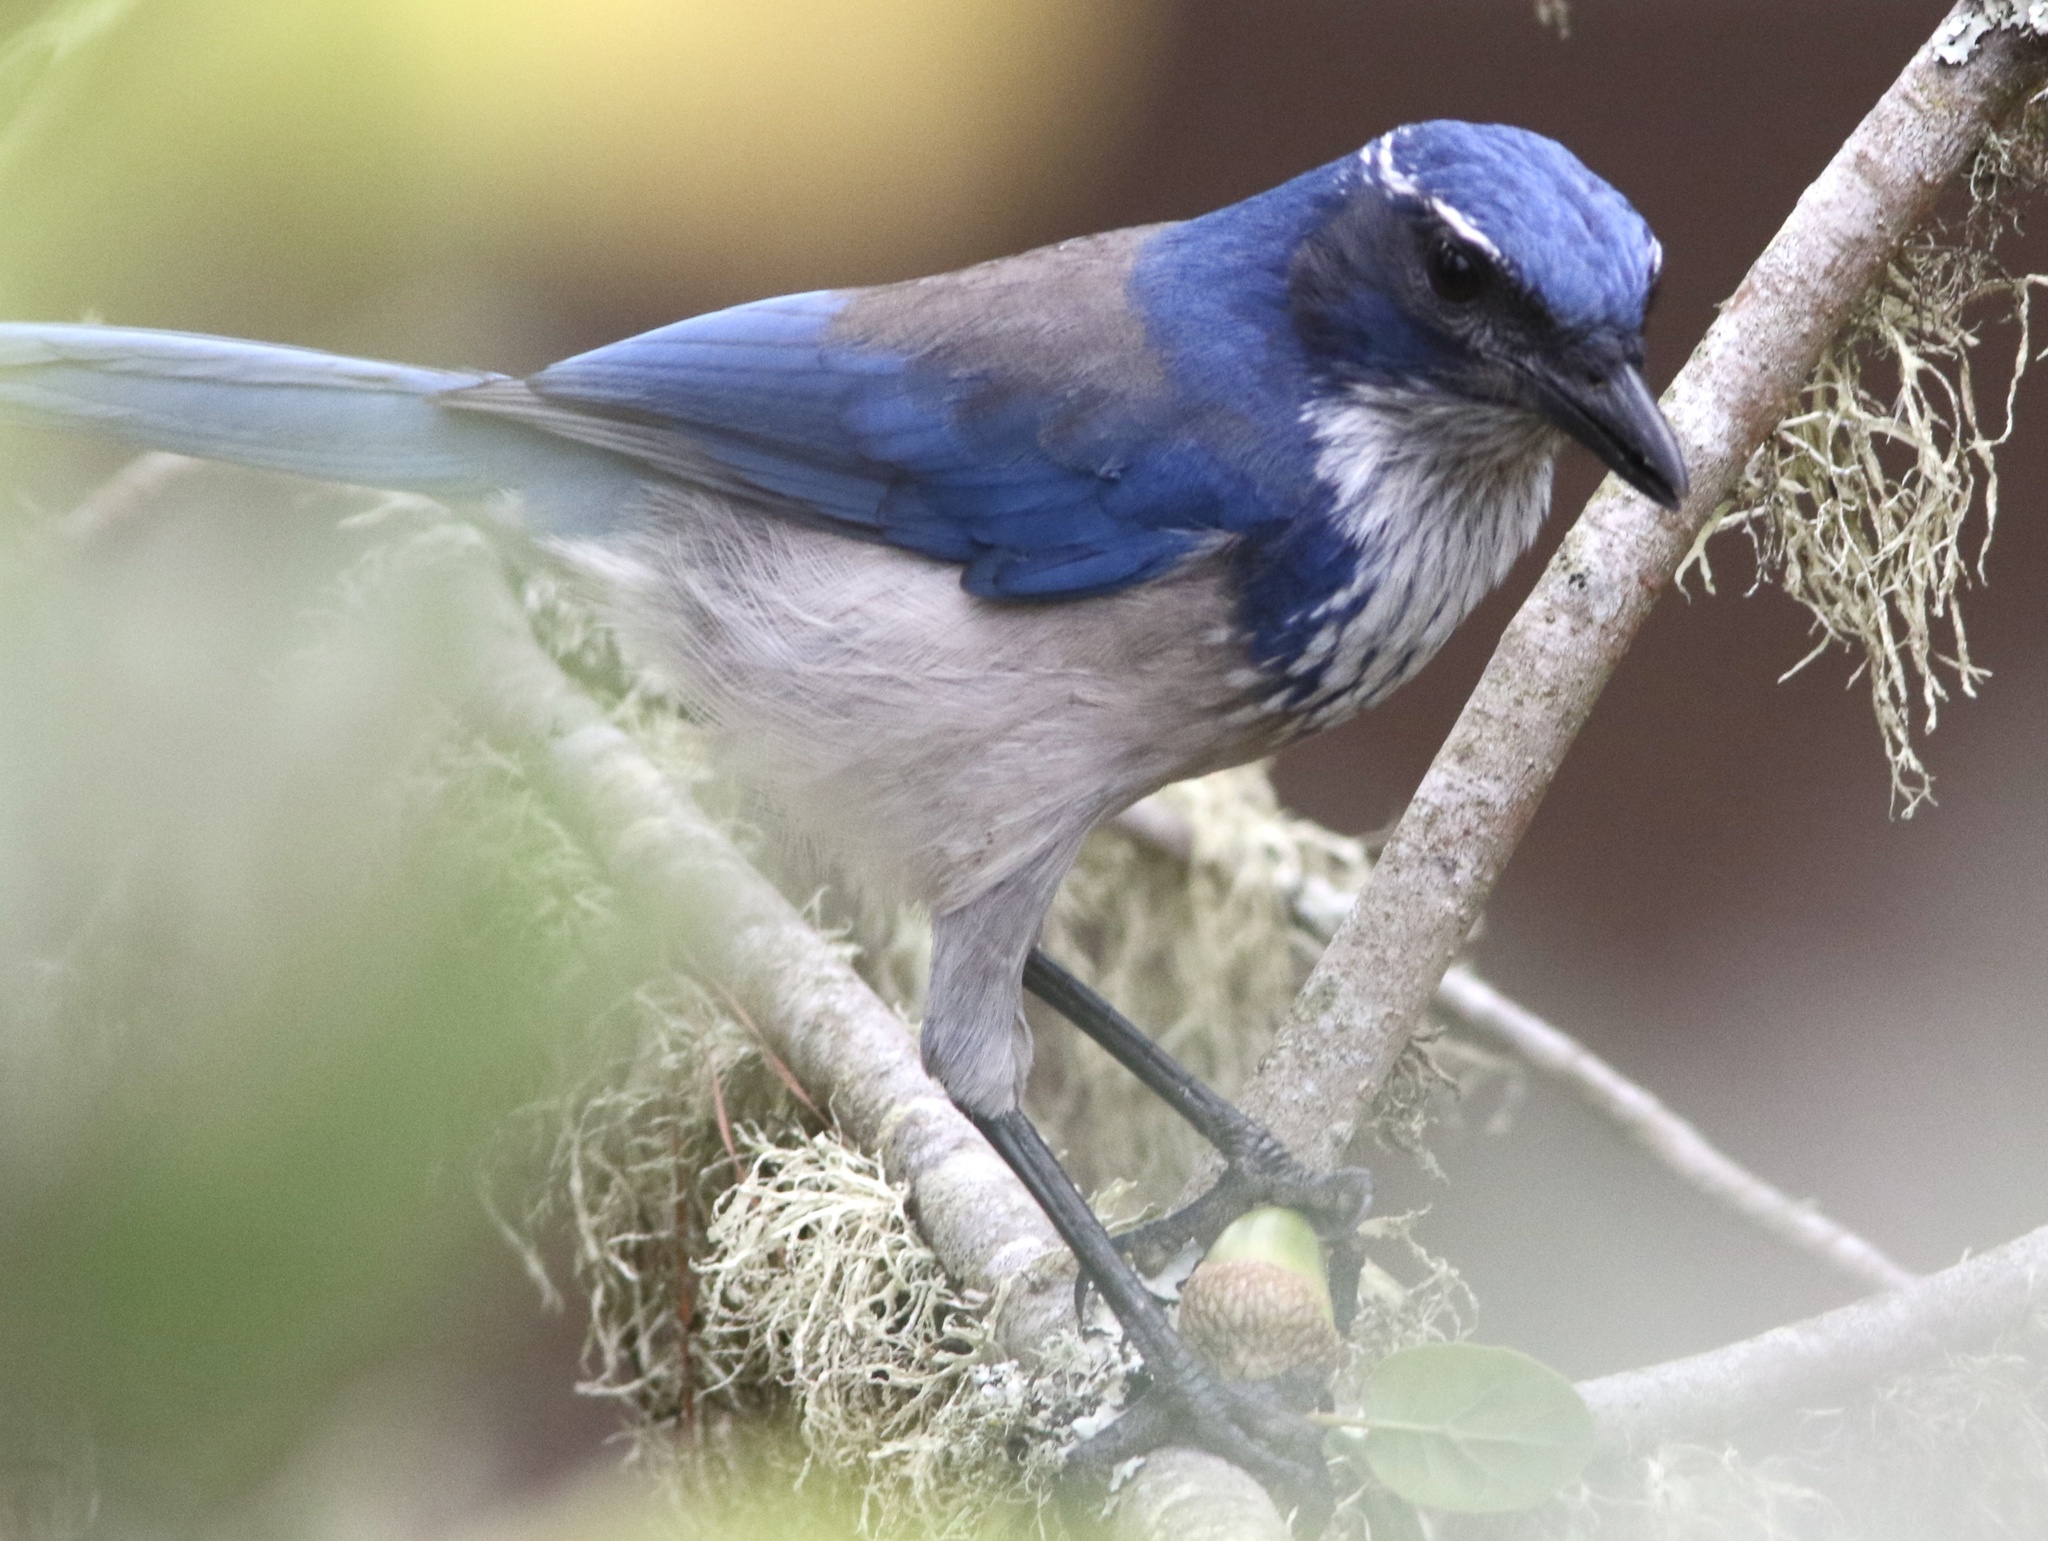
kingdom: Animalia
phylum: Chordata
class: Aves
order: Passeriformes
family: Corvidae
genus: Aphelocoma
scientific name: Aphelocoma californica
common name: California scrub-jay
